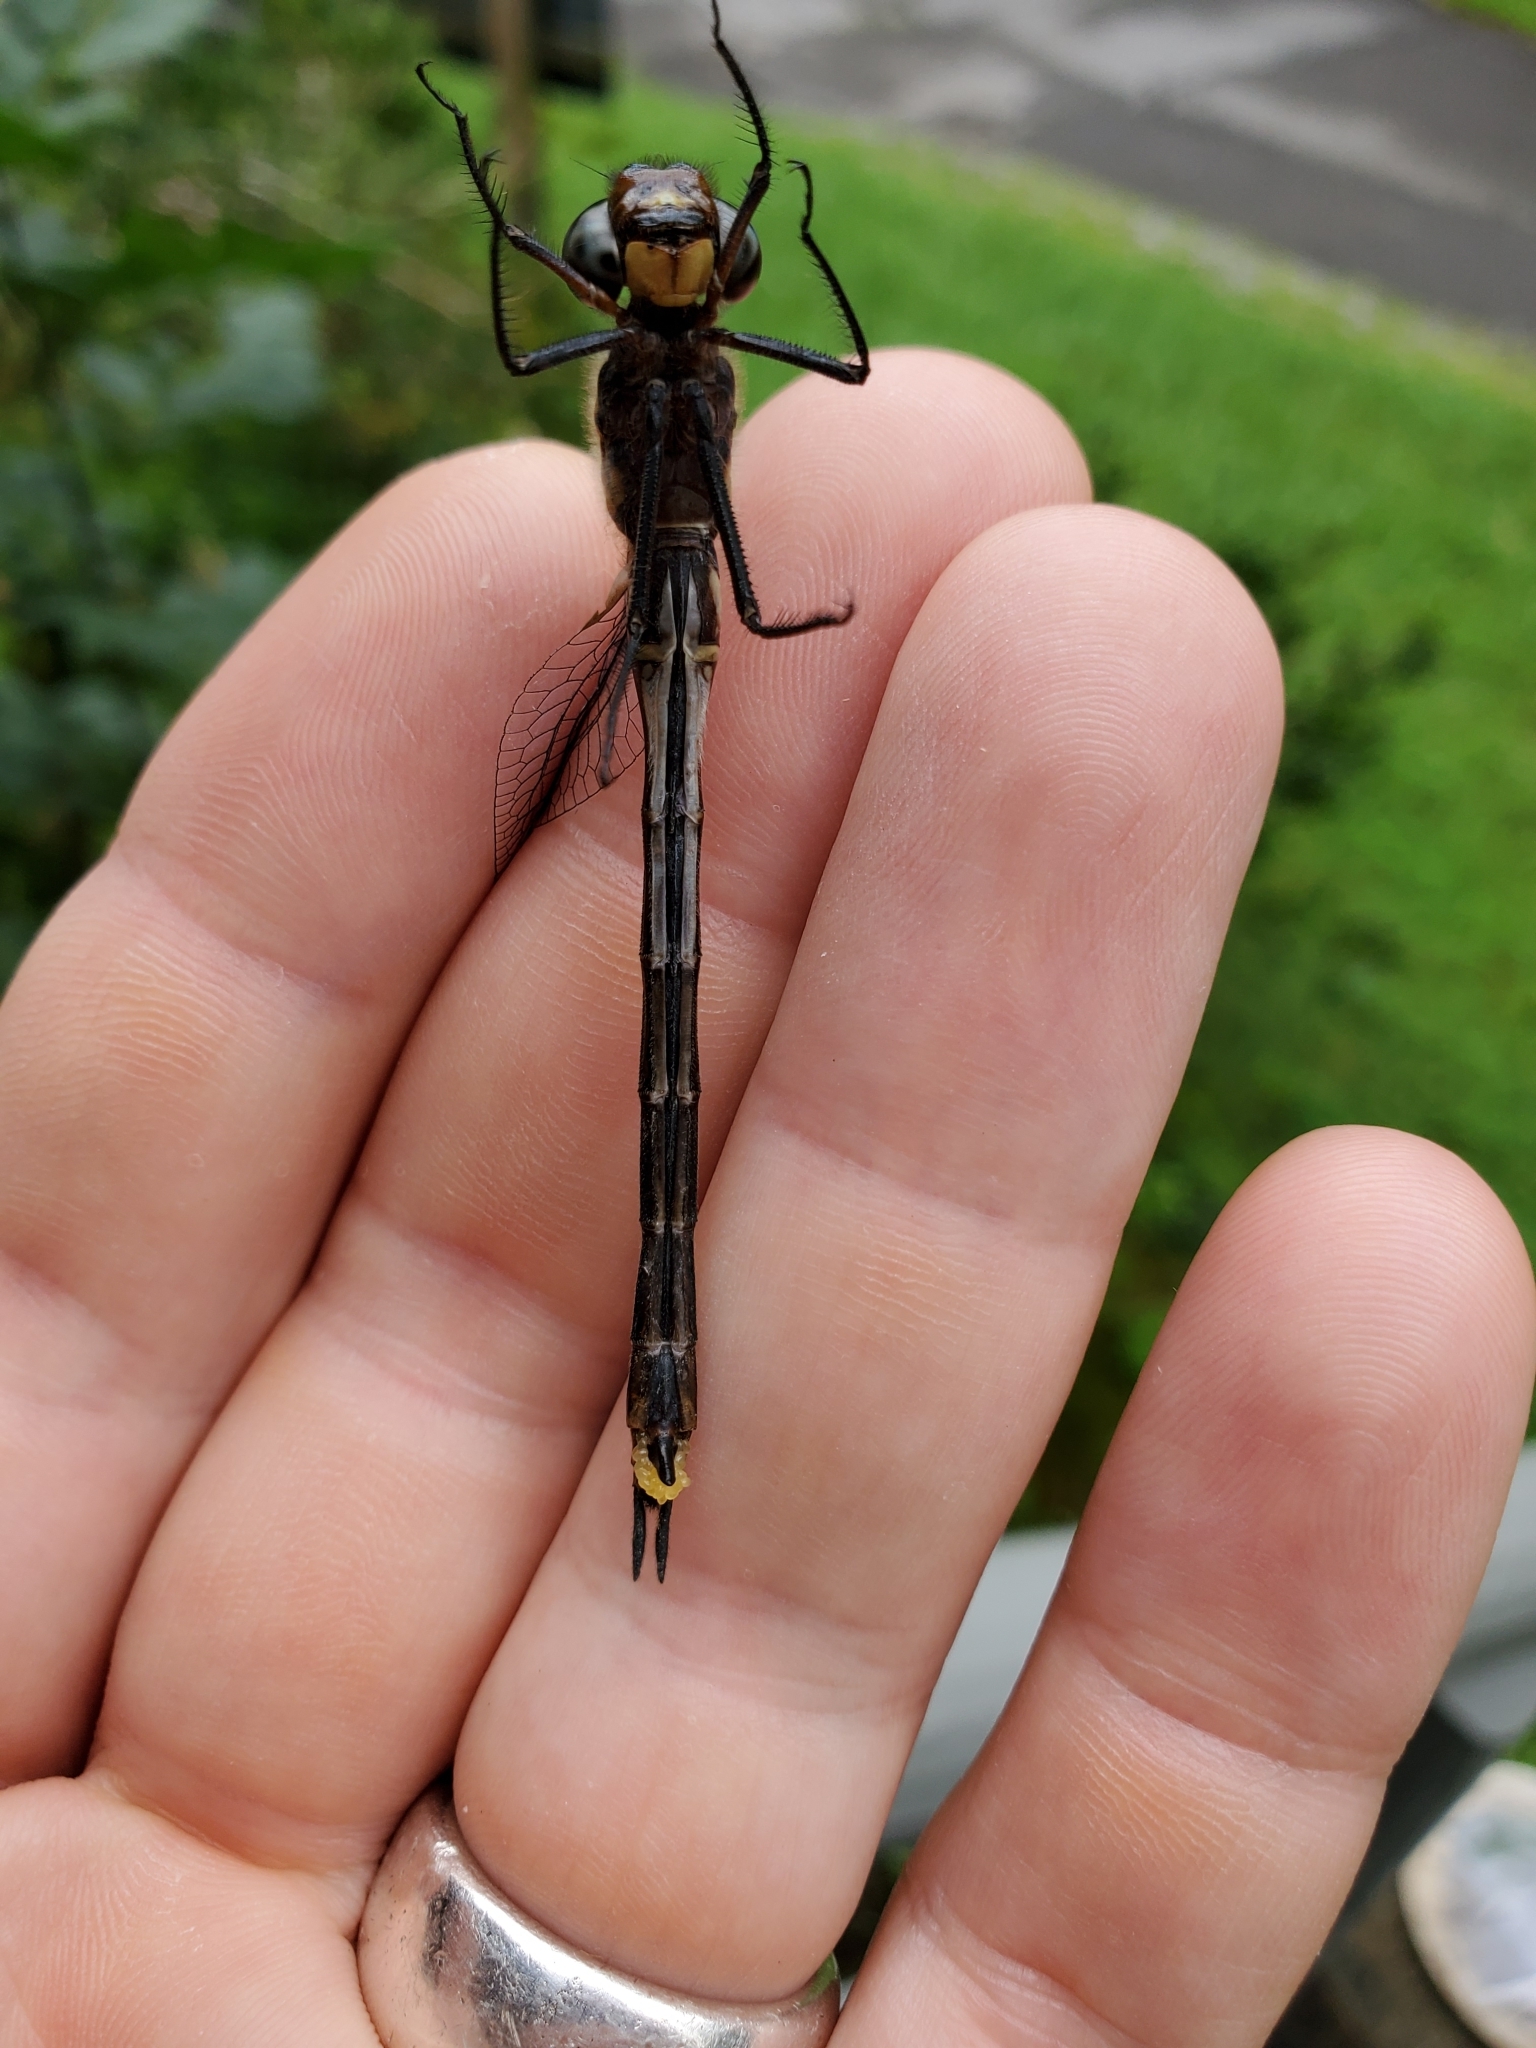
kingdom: Animalia
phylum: Arthropoda
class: Insecta
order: Odonata
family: Corduliidae
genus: Somatochlora
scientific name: Somatochlora tenebrosa
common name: Clamp-tipped emerald
